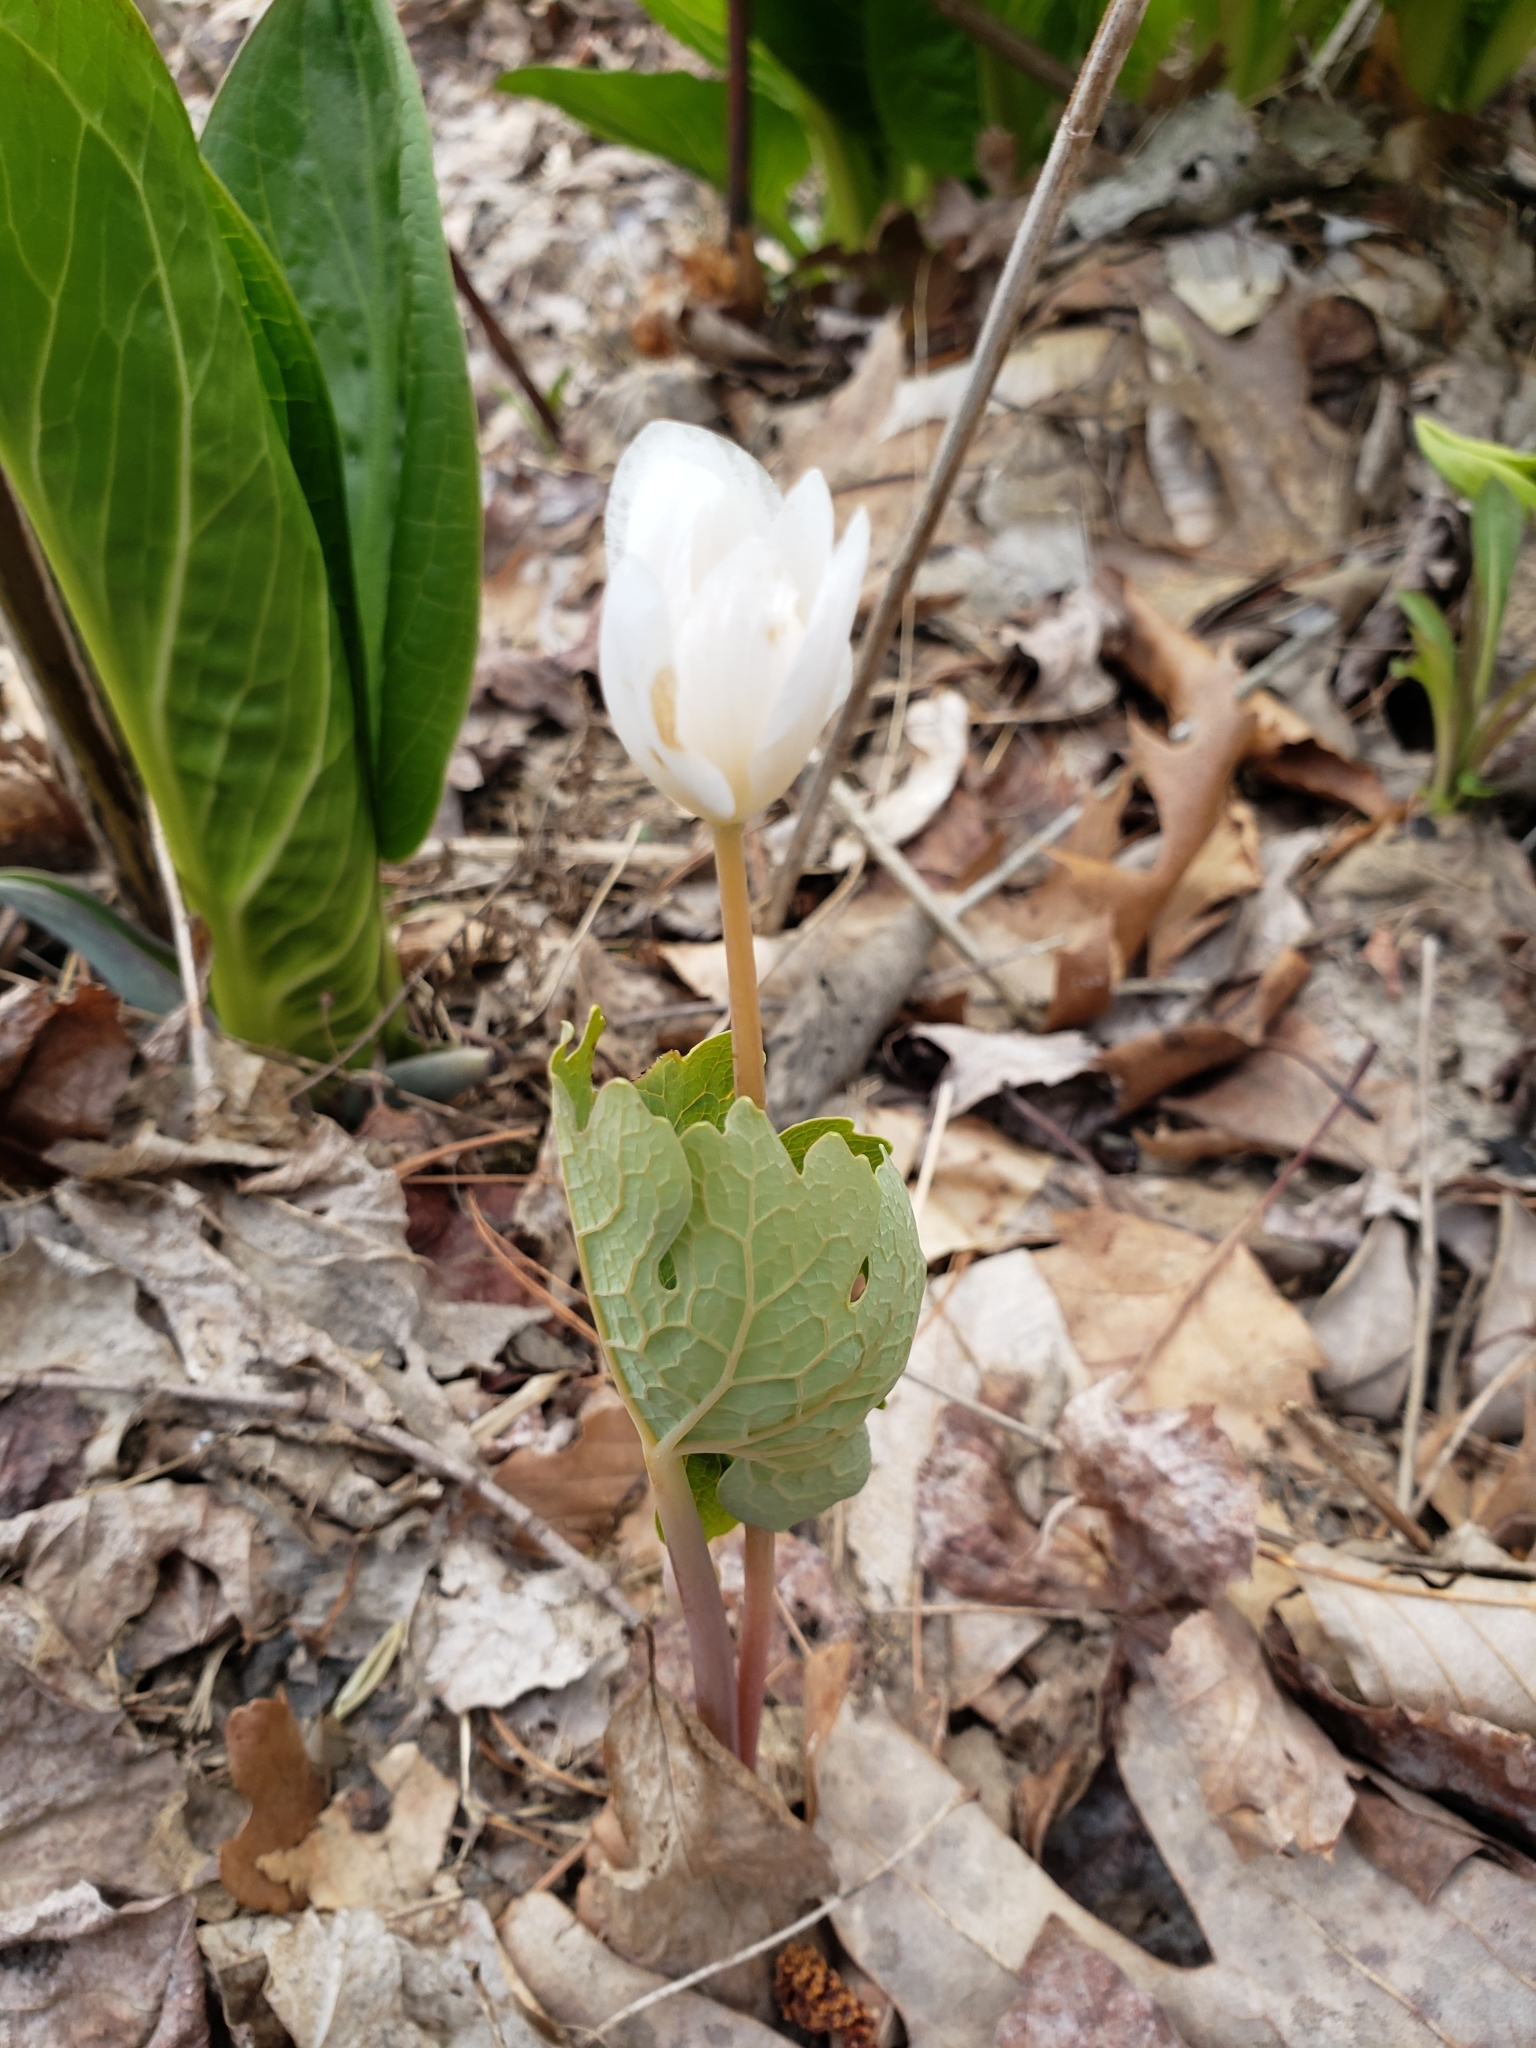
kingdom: Plantae
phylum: Tracheophyta
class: Magnoliopsida
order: Ranunculales
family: Papaveraceae
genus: Sanguinaria
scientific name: Sanguinaria canadensis
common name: Bloodroot
